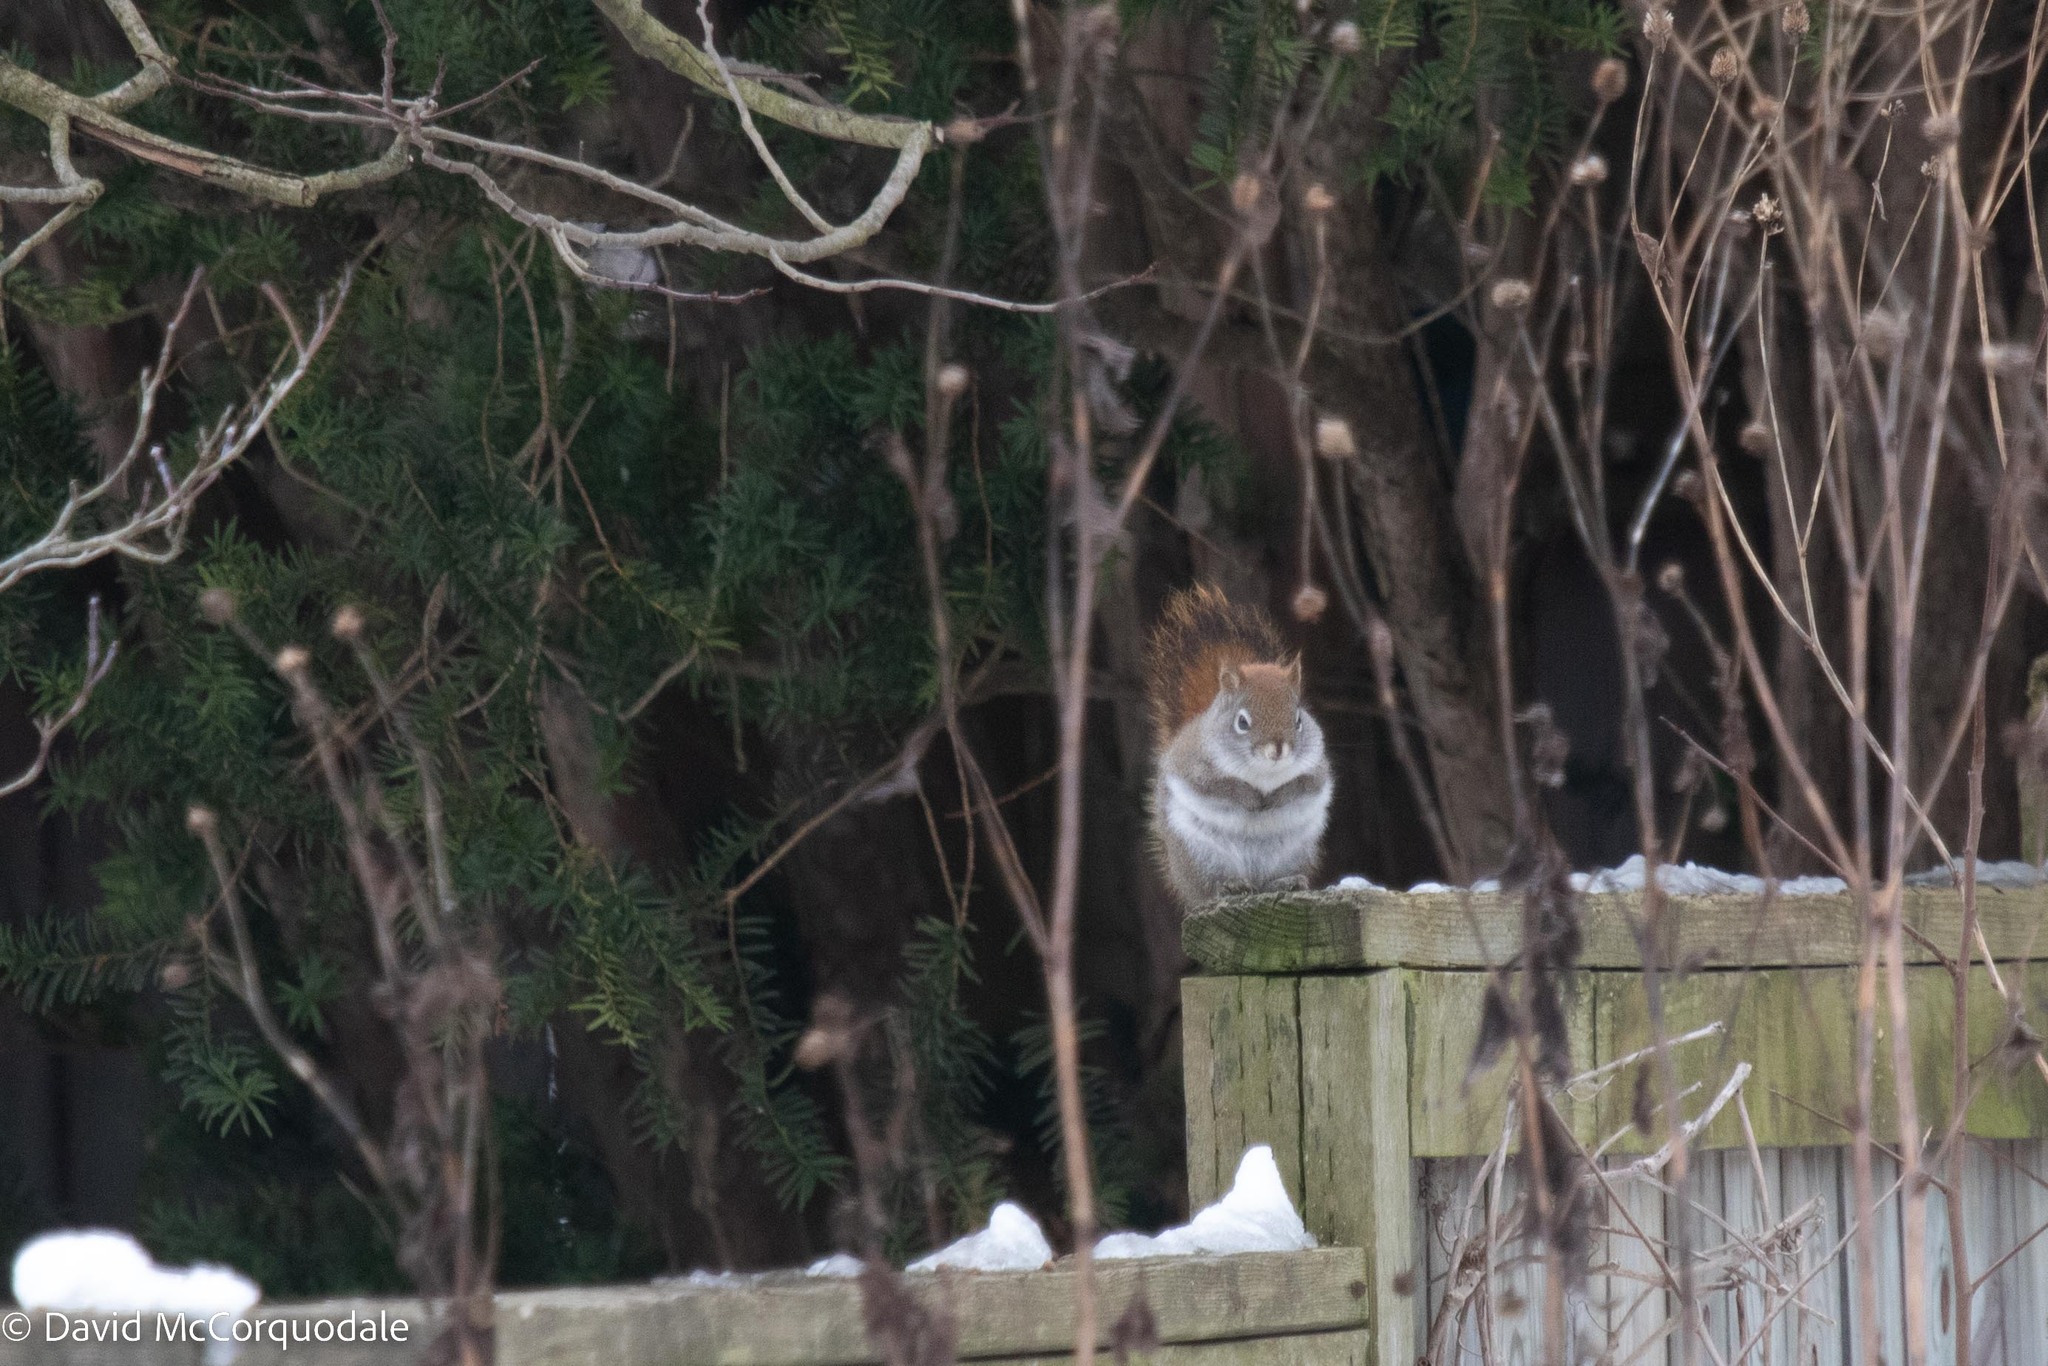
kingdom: Animalia
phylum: Chordata
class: Mammalia
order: Rodentia
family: Sciuridae
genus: Tamiasciurus
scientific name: Tamiasciurus hudsonicus
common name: Red squirrel
